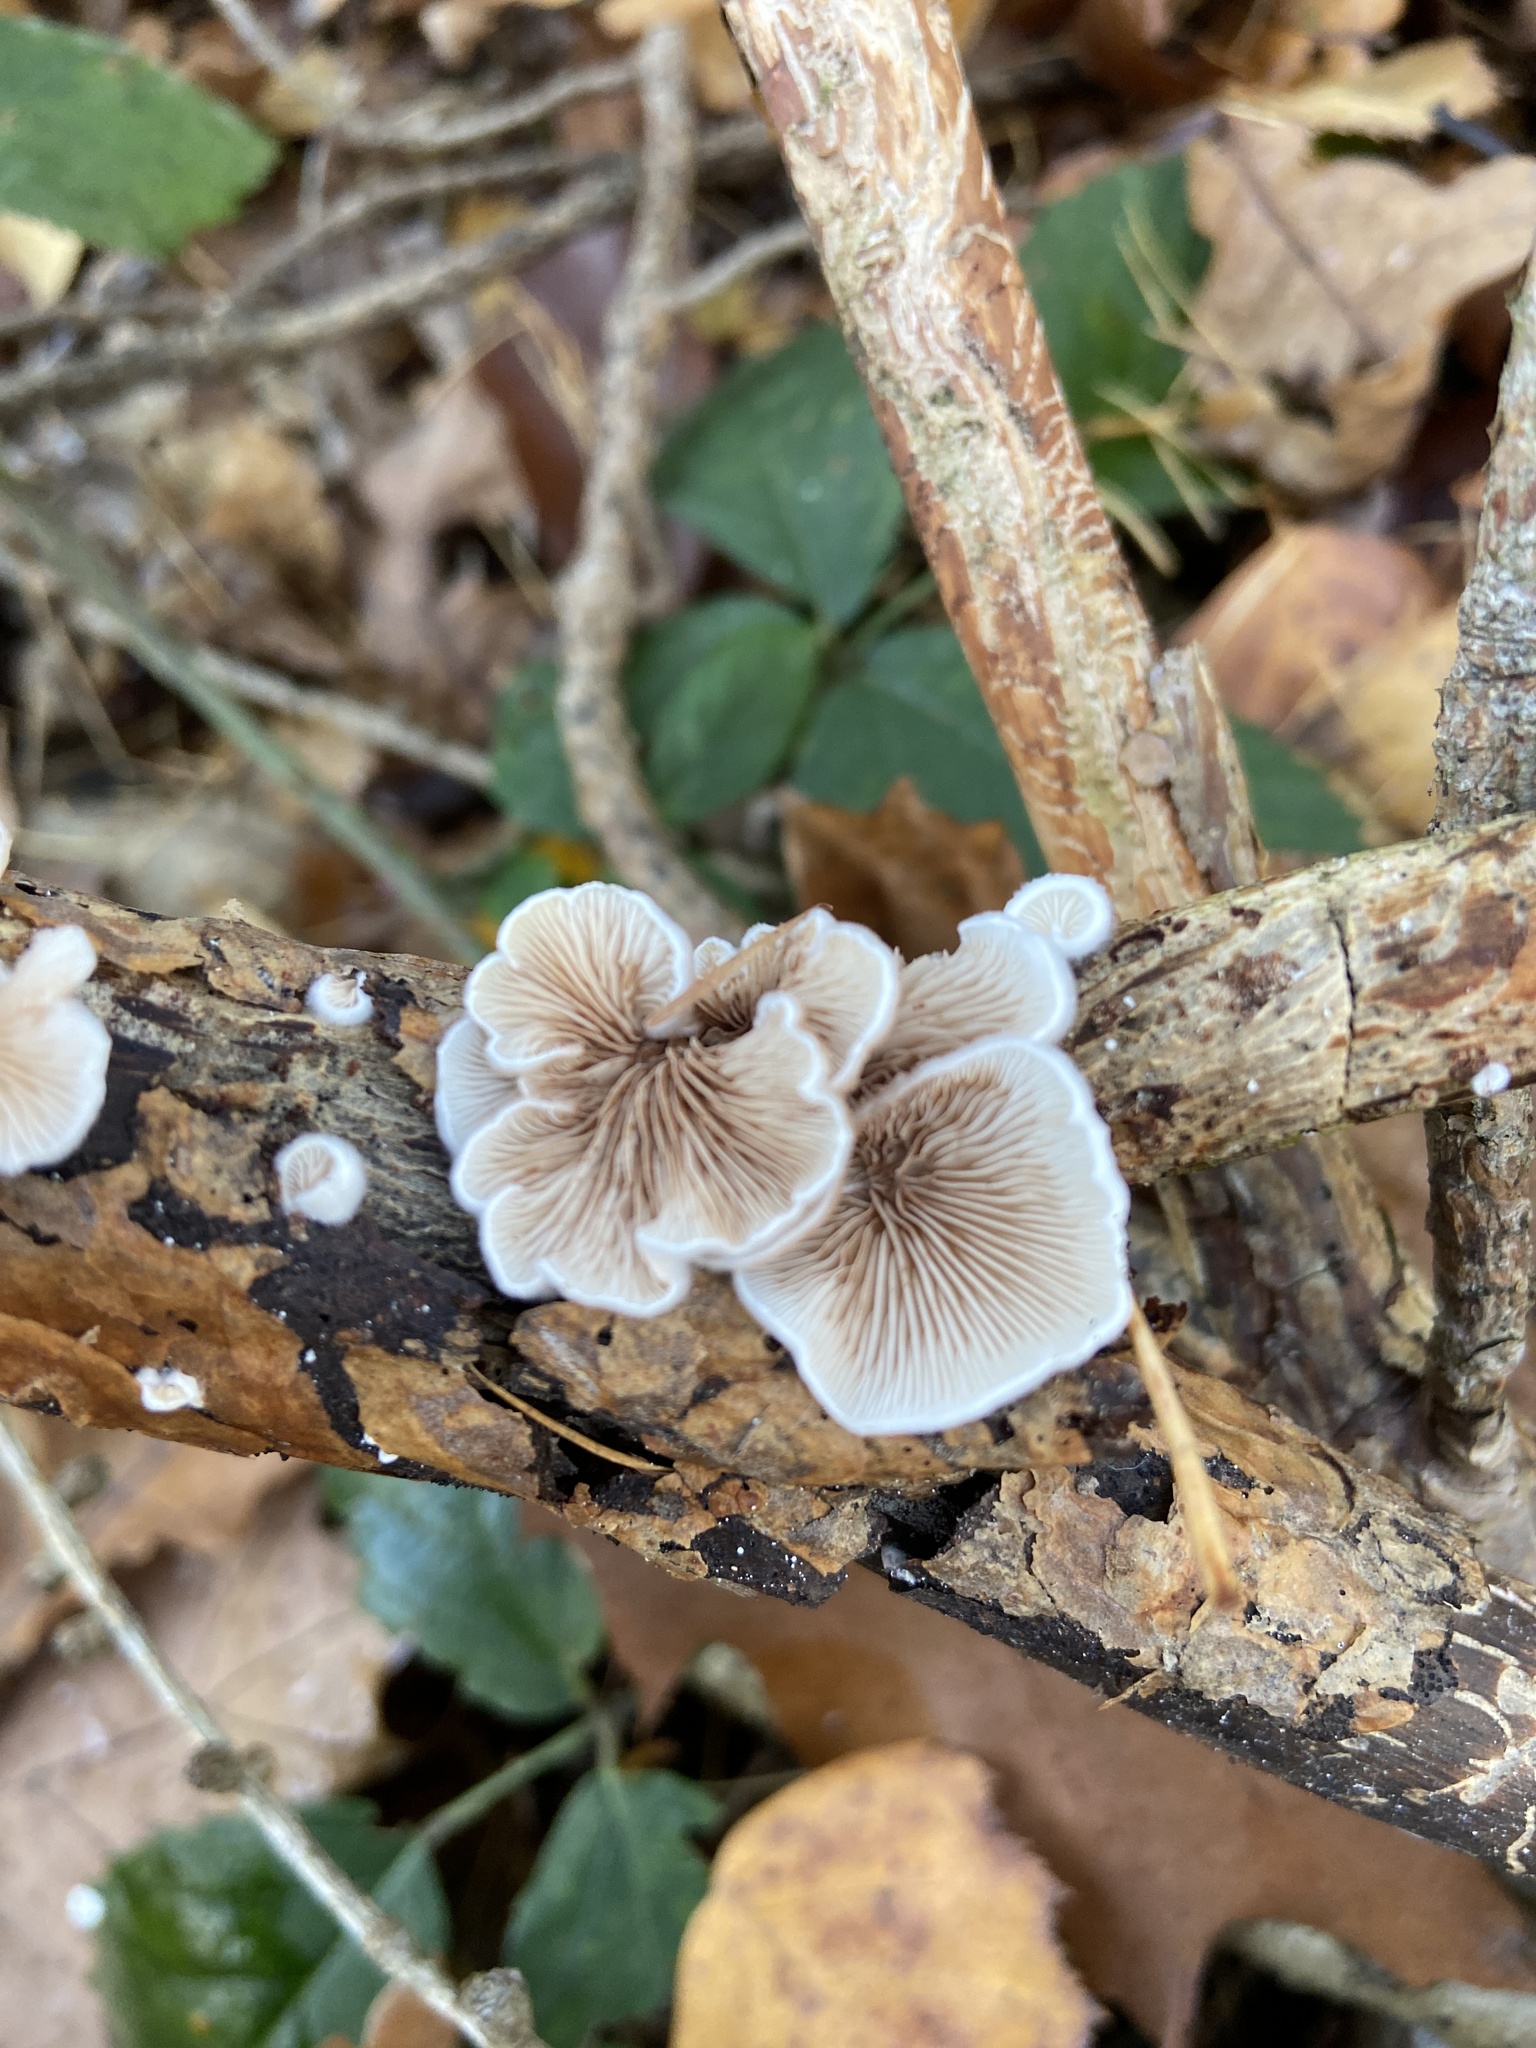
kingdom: Fungi
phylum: Basidiomycota
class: Agaricomycetes
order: Agaricales
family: Schizophyllaceae
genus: Schizophyllum
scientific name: Schizophyllum commune
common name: Common porecrust
